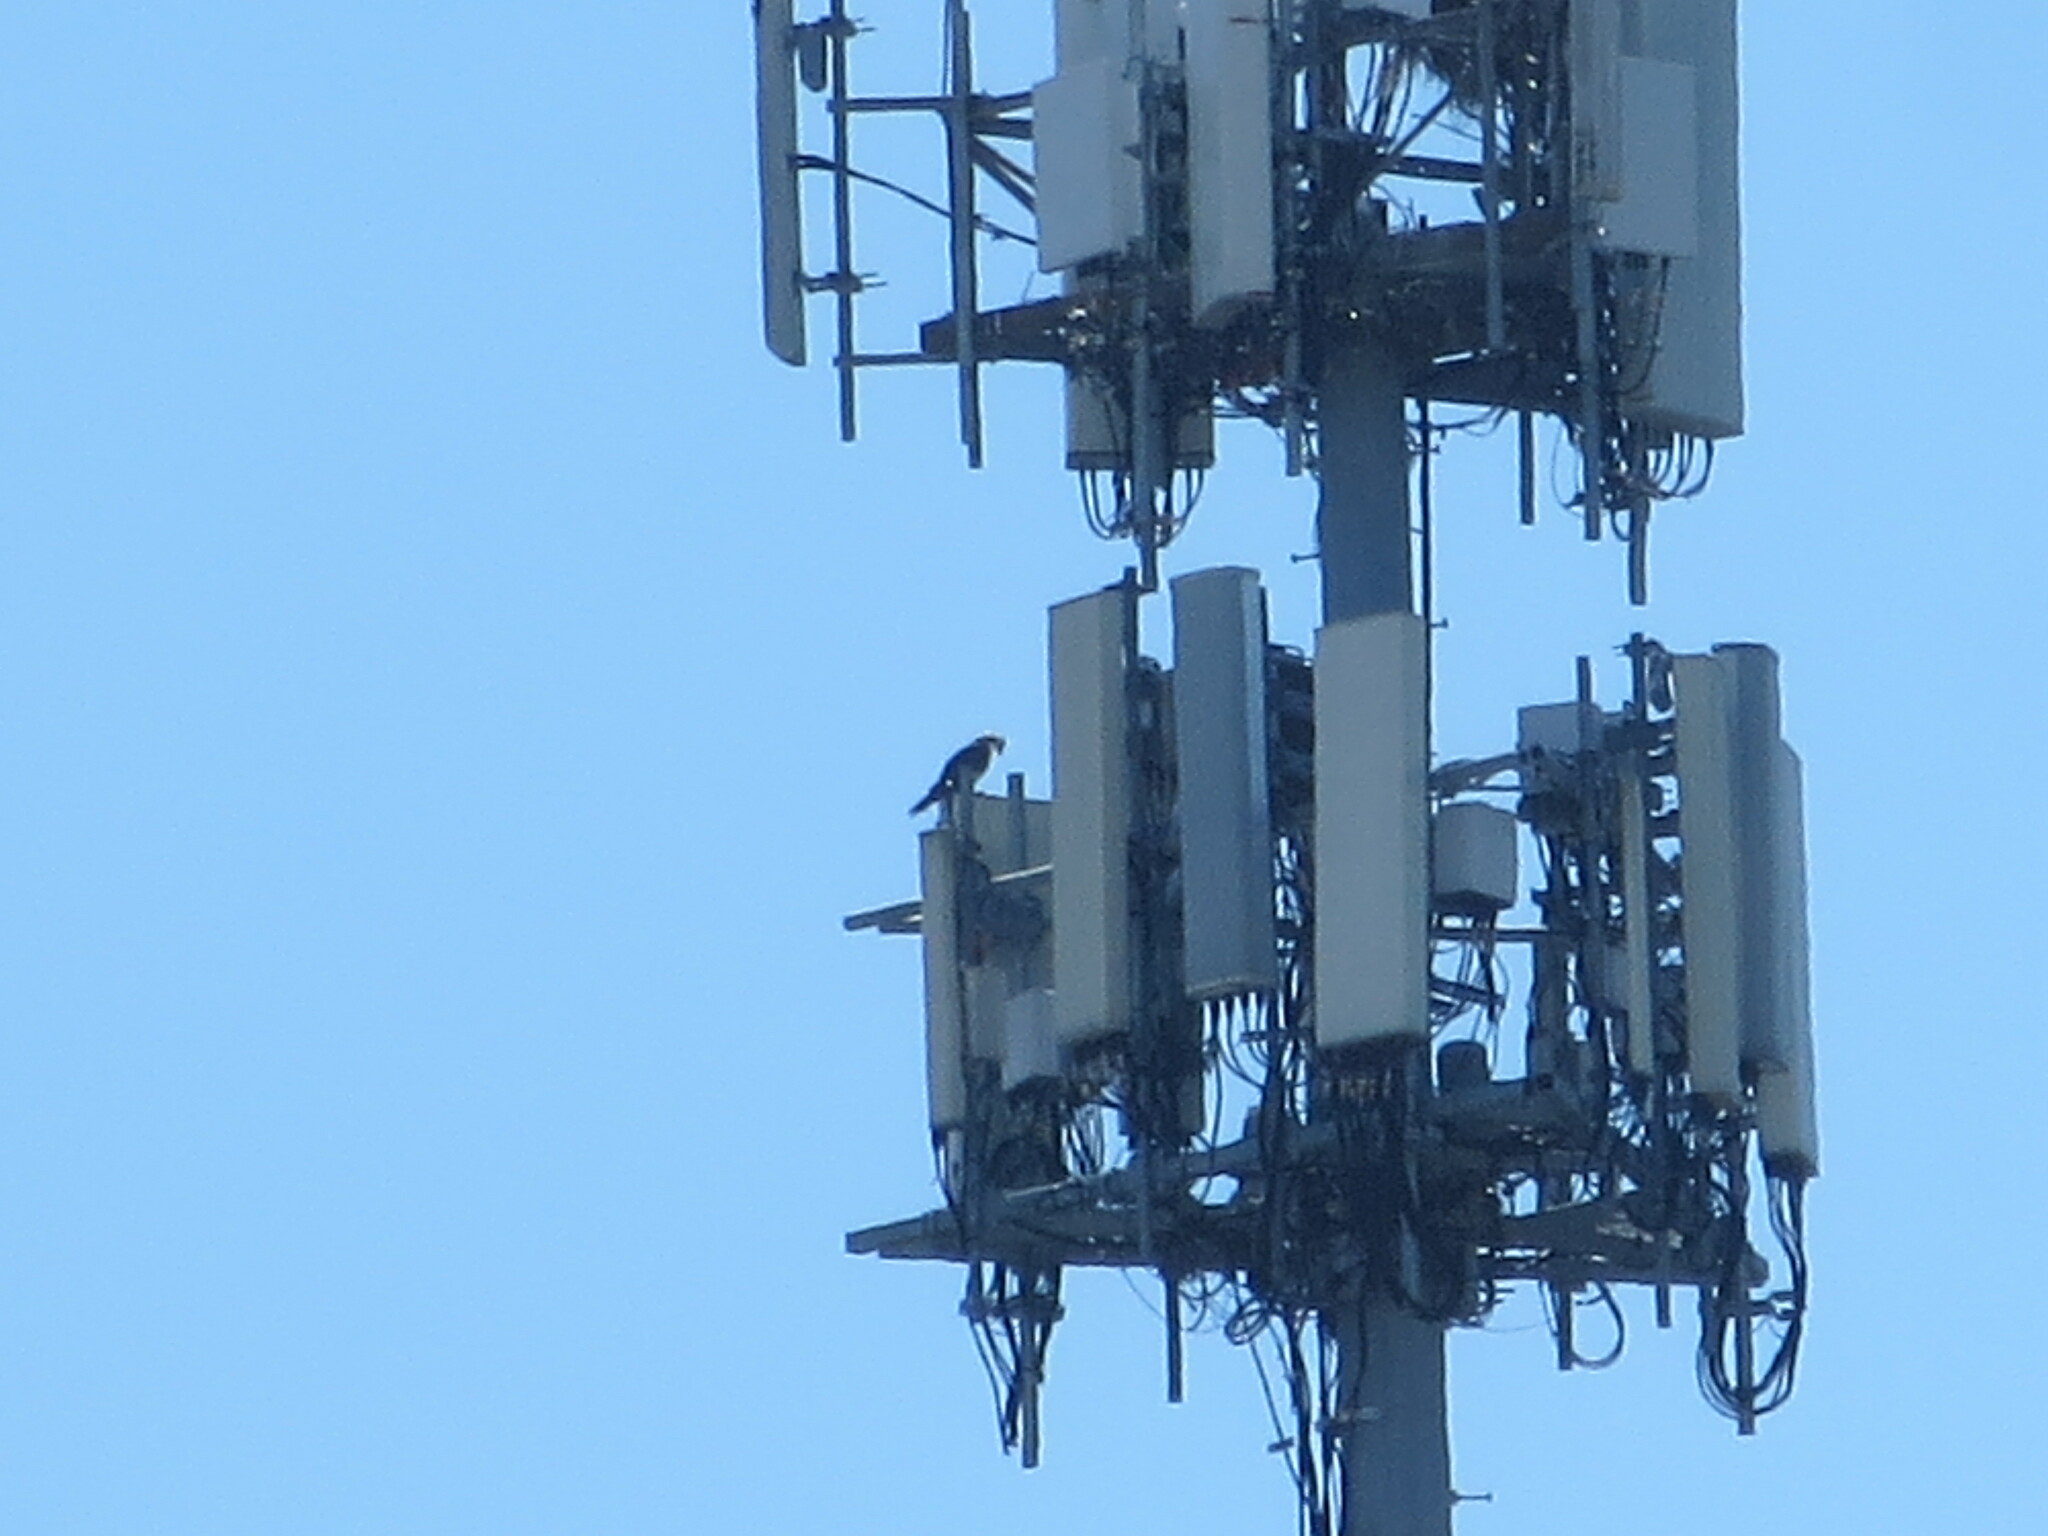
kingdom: Animalia
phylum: Chordata
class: Aves
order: Accipitriformes
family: Pandionidae
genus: Pandion
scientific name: Pandion haliaetus
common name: Osprey
